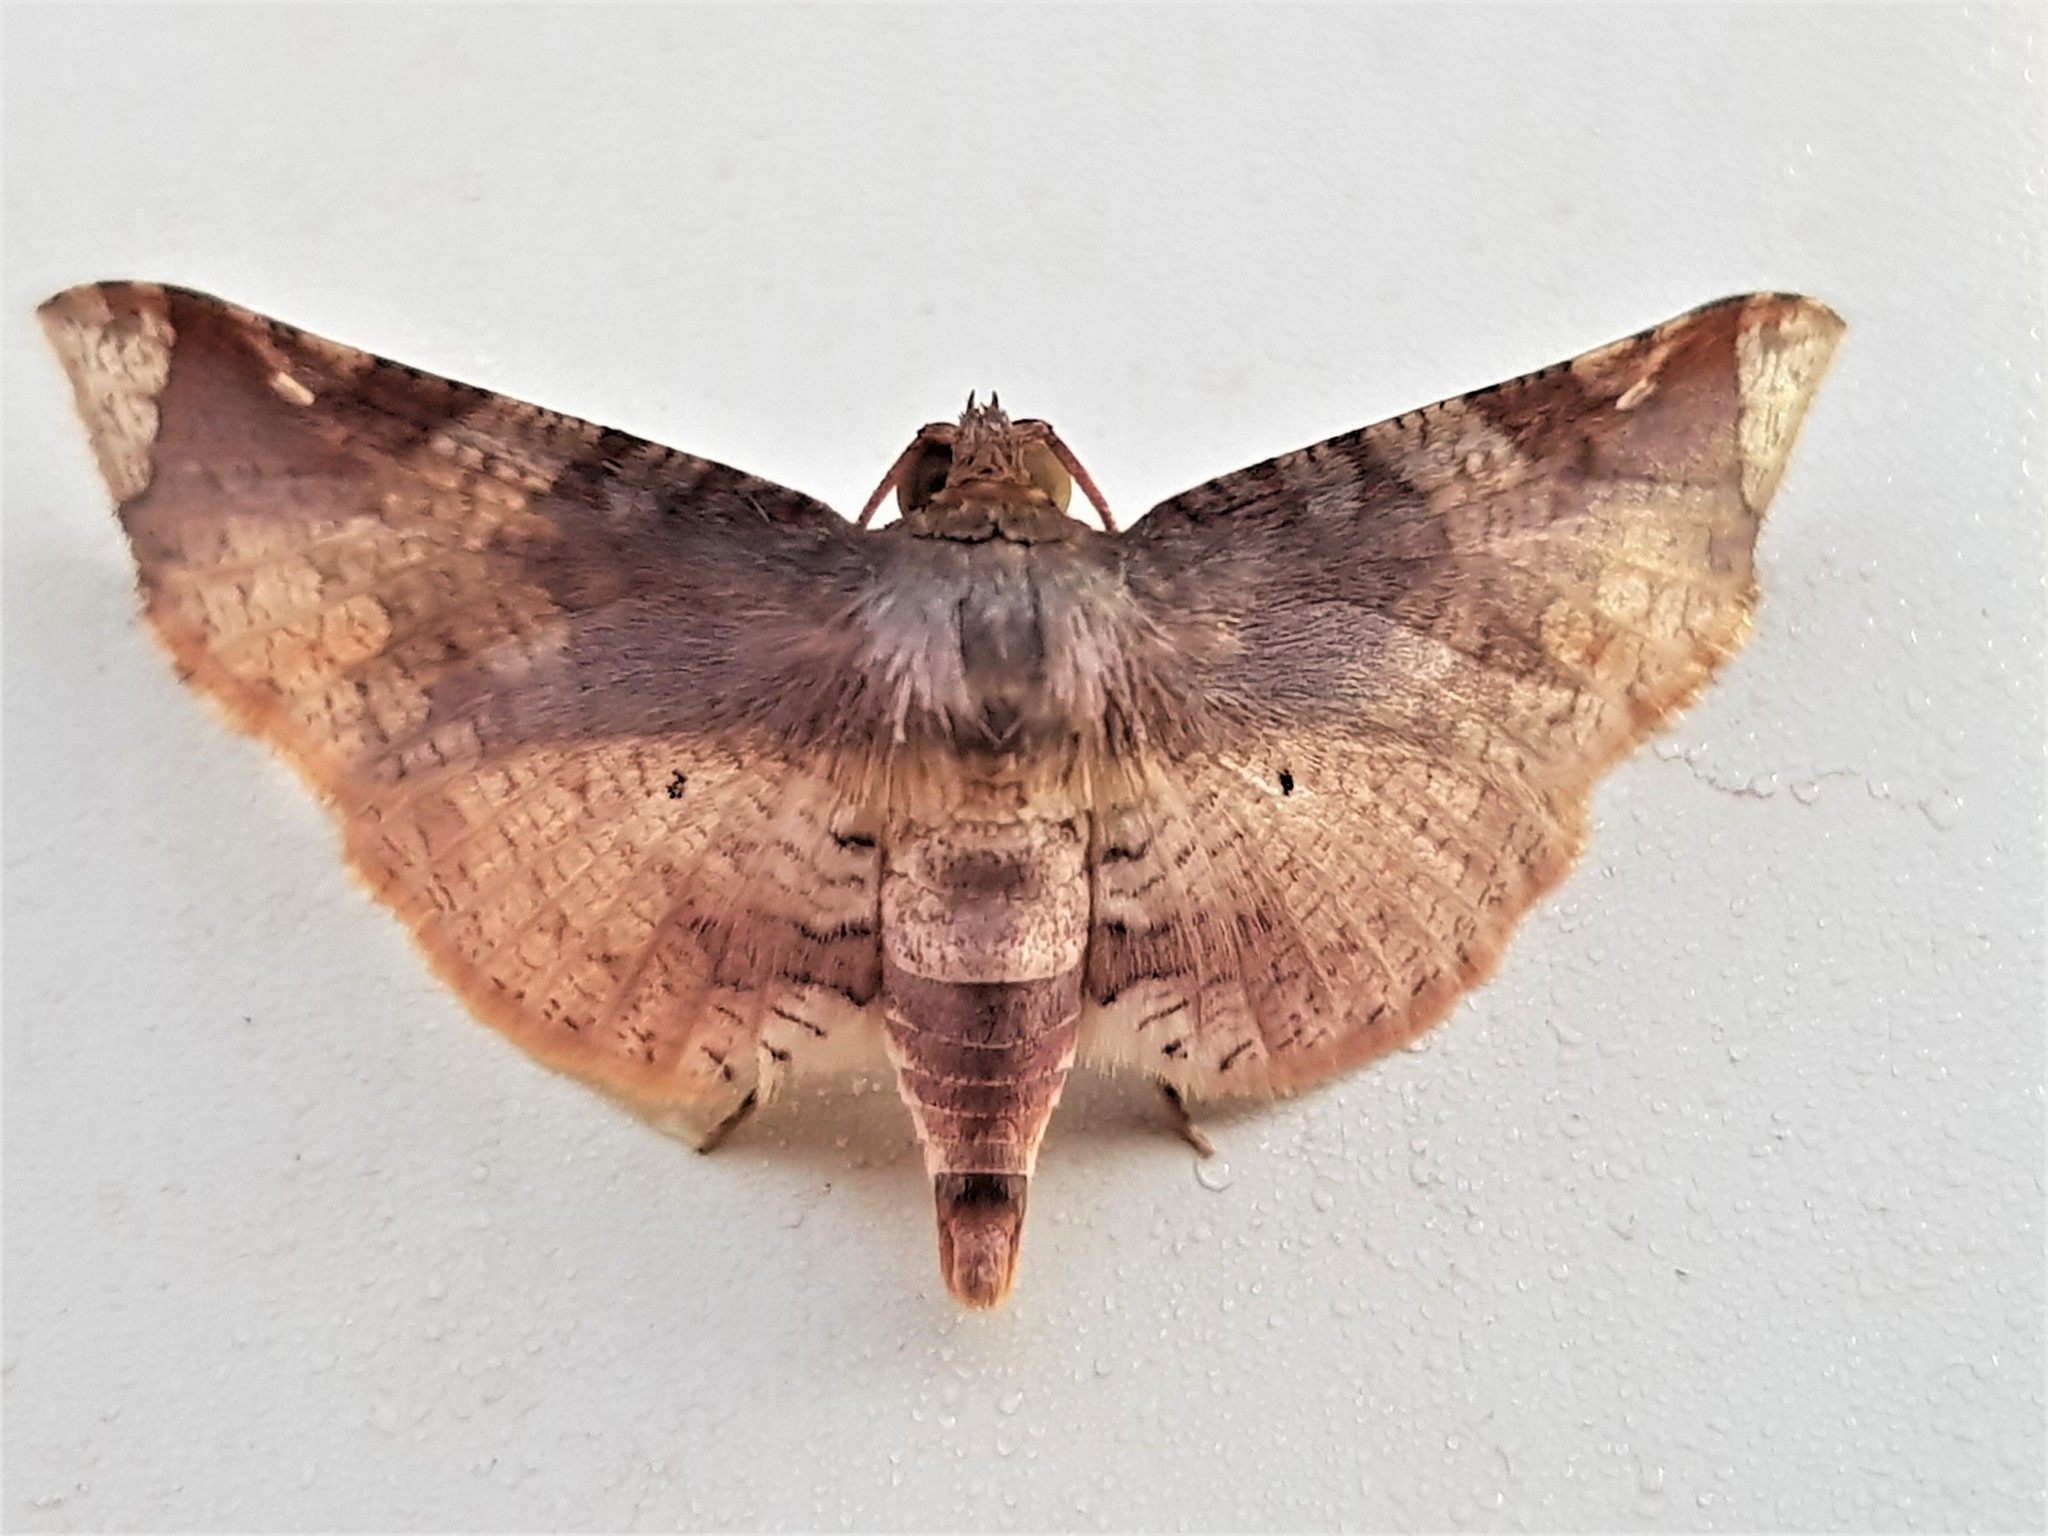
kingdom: Animalia
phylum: Arthropoda
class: Insecta
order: Lepidoptera
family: Thyrididae
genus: Microsca
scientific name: Microsca hedilalis
